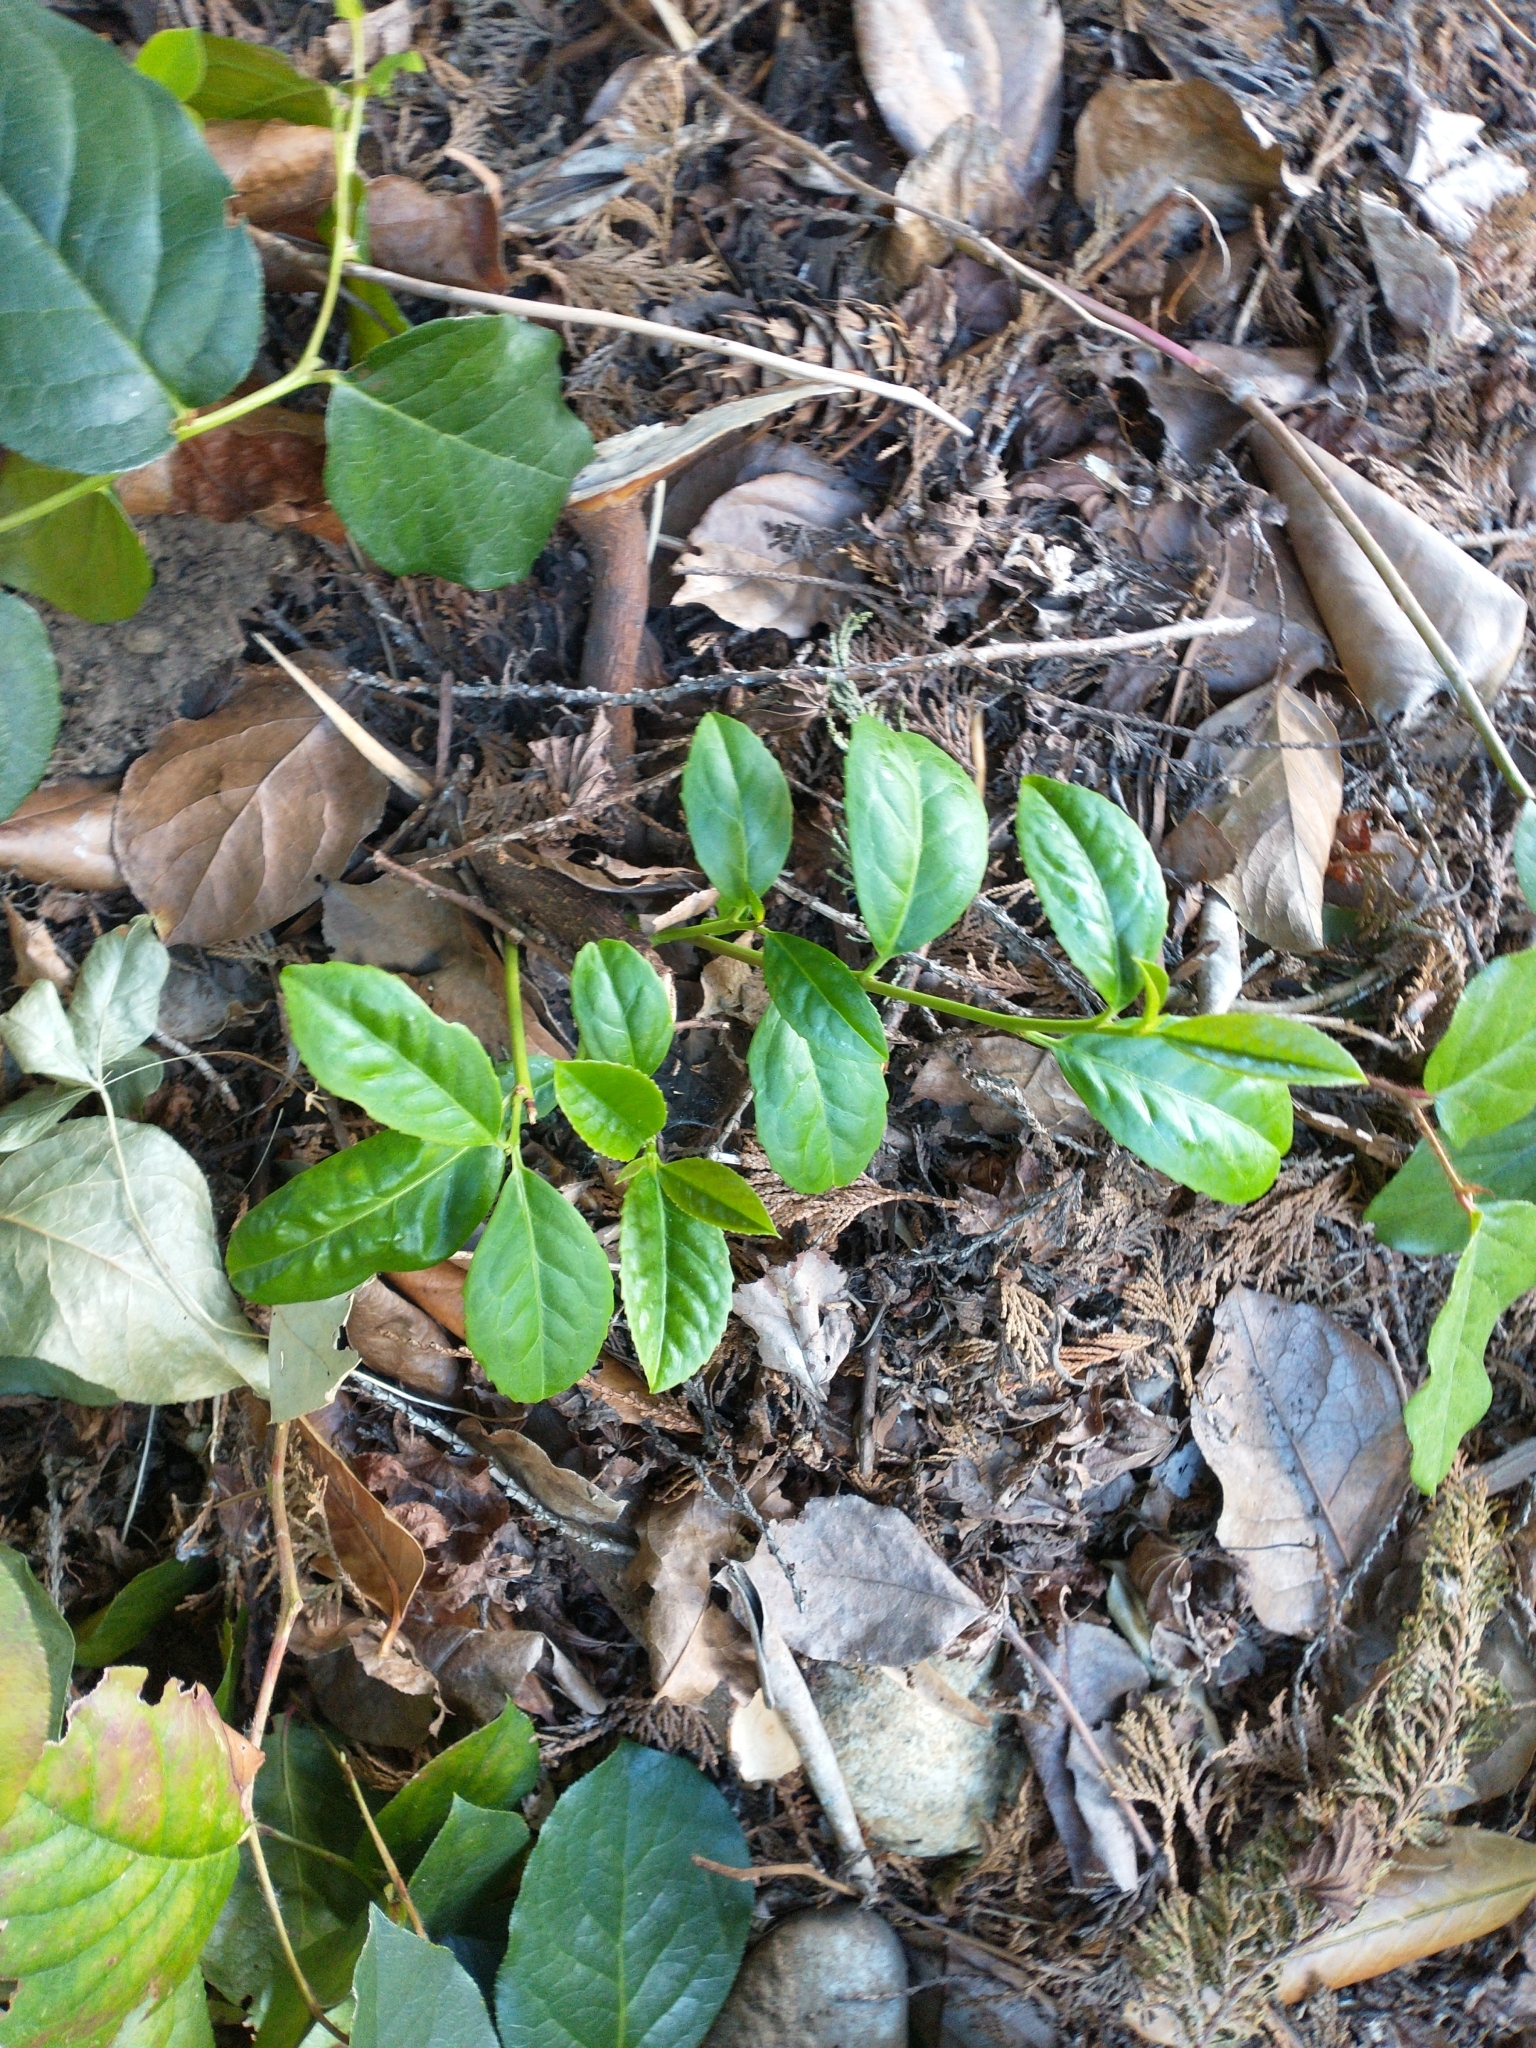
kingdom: Plantae
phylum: Tracheophyta
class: Magnoliopsida
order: Rosales
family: Rosaceae
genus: Prunus
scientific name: Prunus laurocerasus
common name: Cherry laurel
